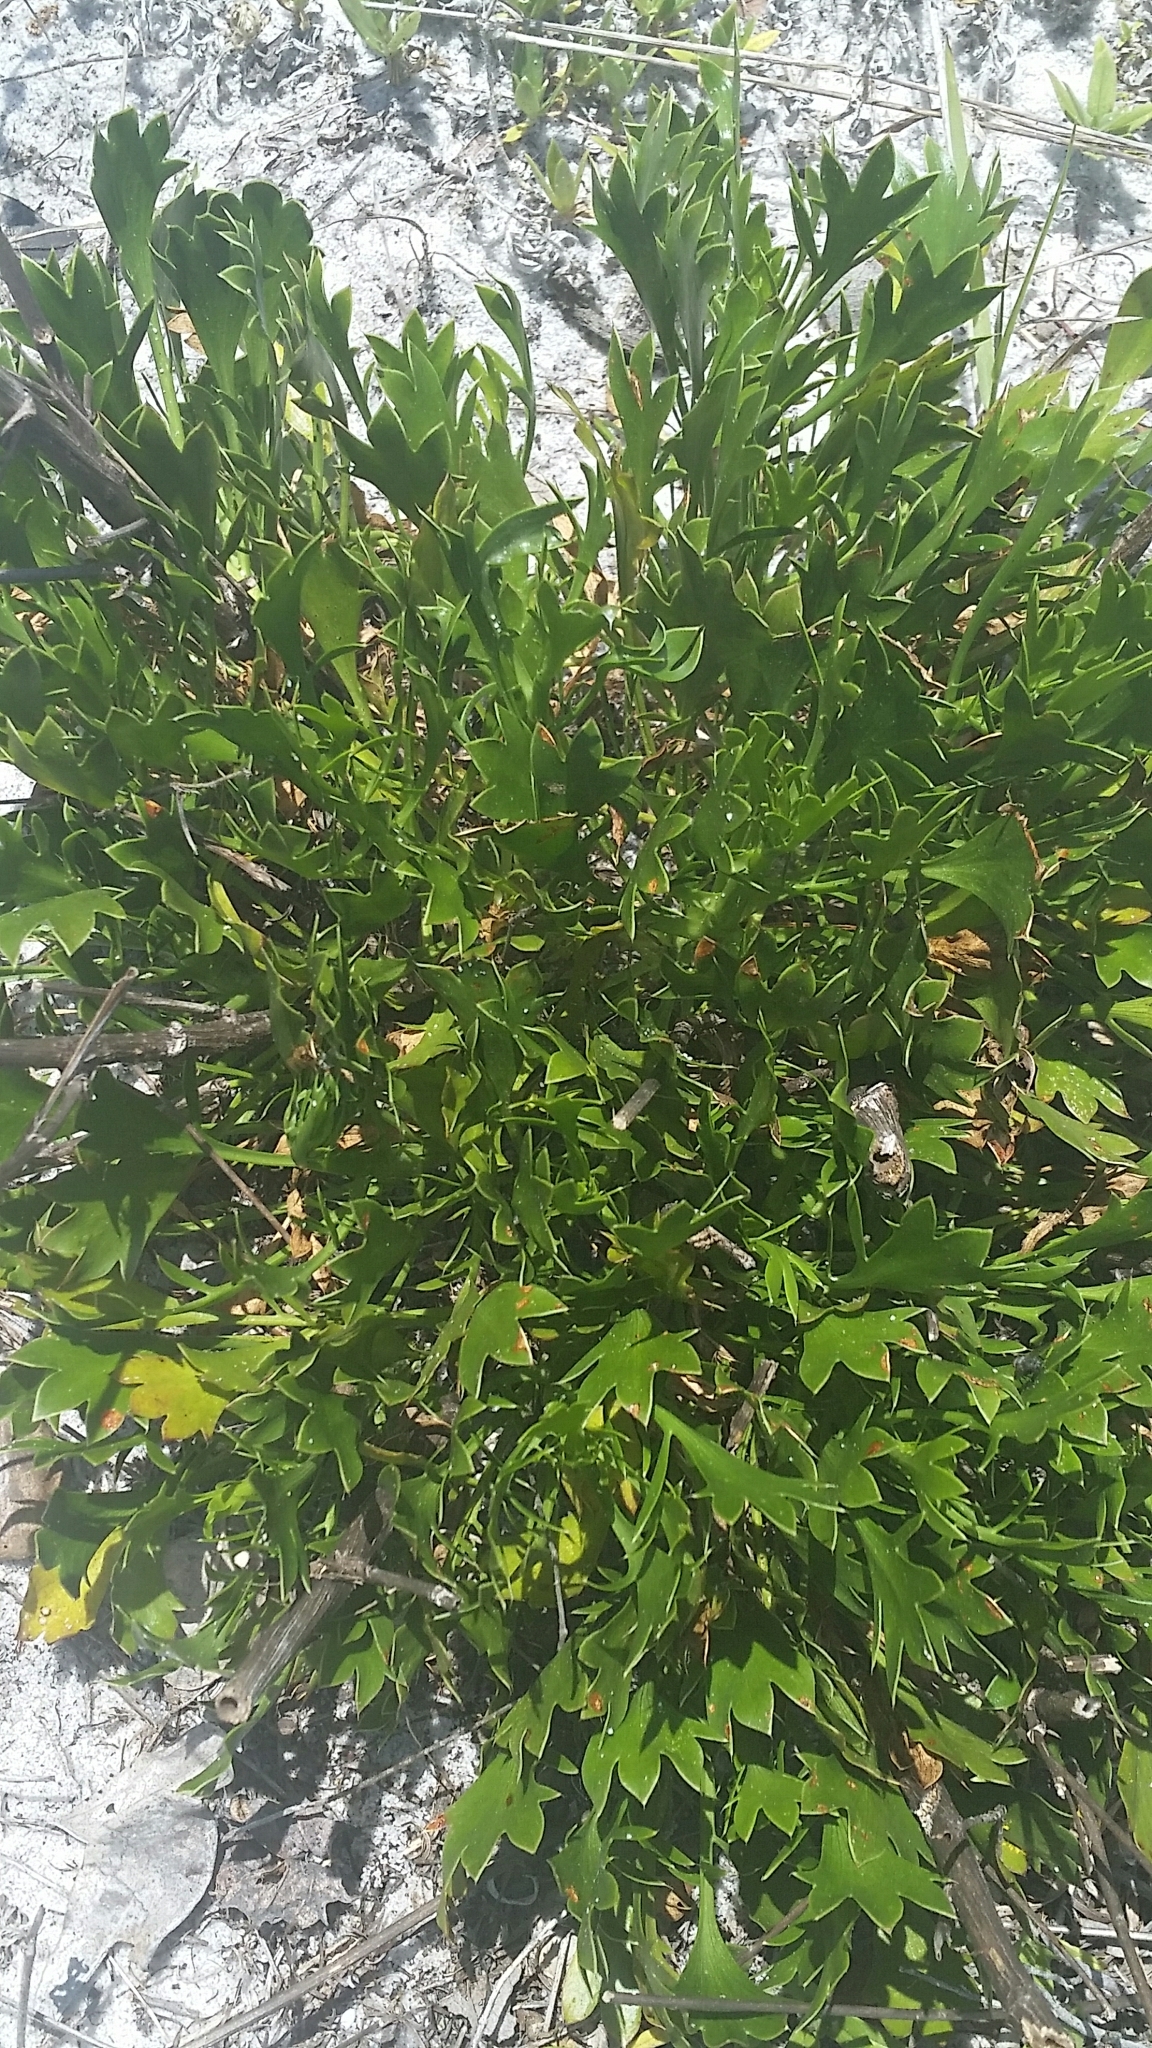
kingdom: Plantae
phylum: Tracheophyta
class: Magnoliopsida
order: Apiales
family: Apiaceae
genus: Eryngium
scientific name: Eryngium cuneifolium
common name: Snakeroot
